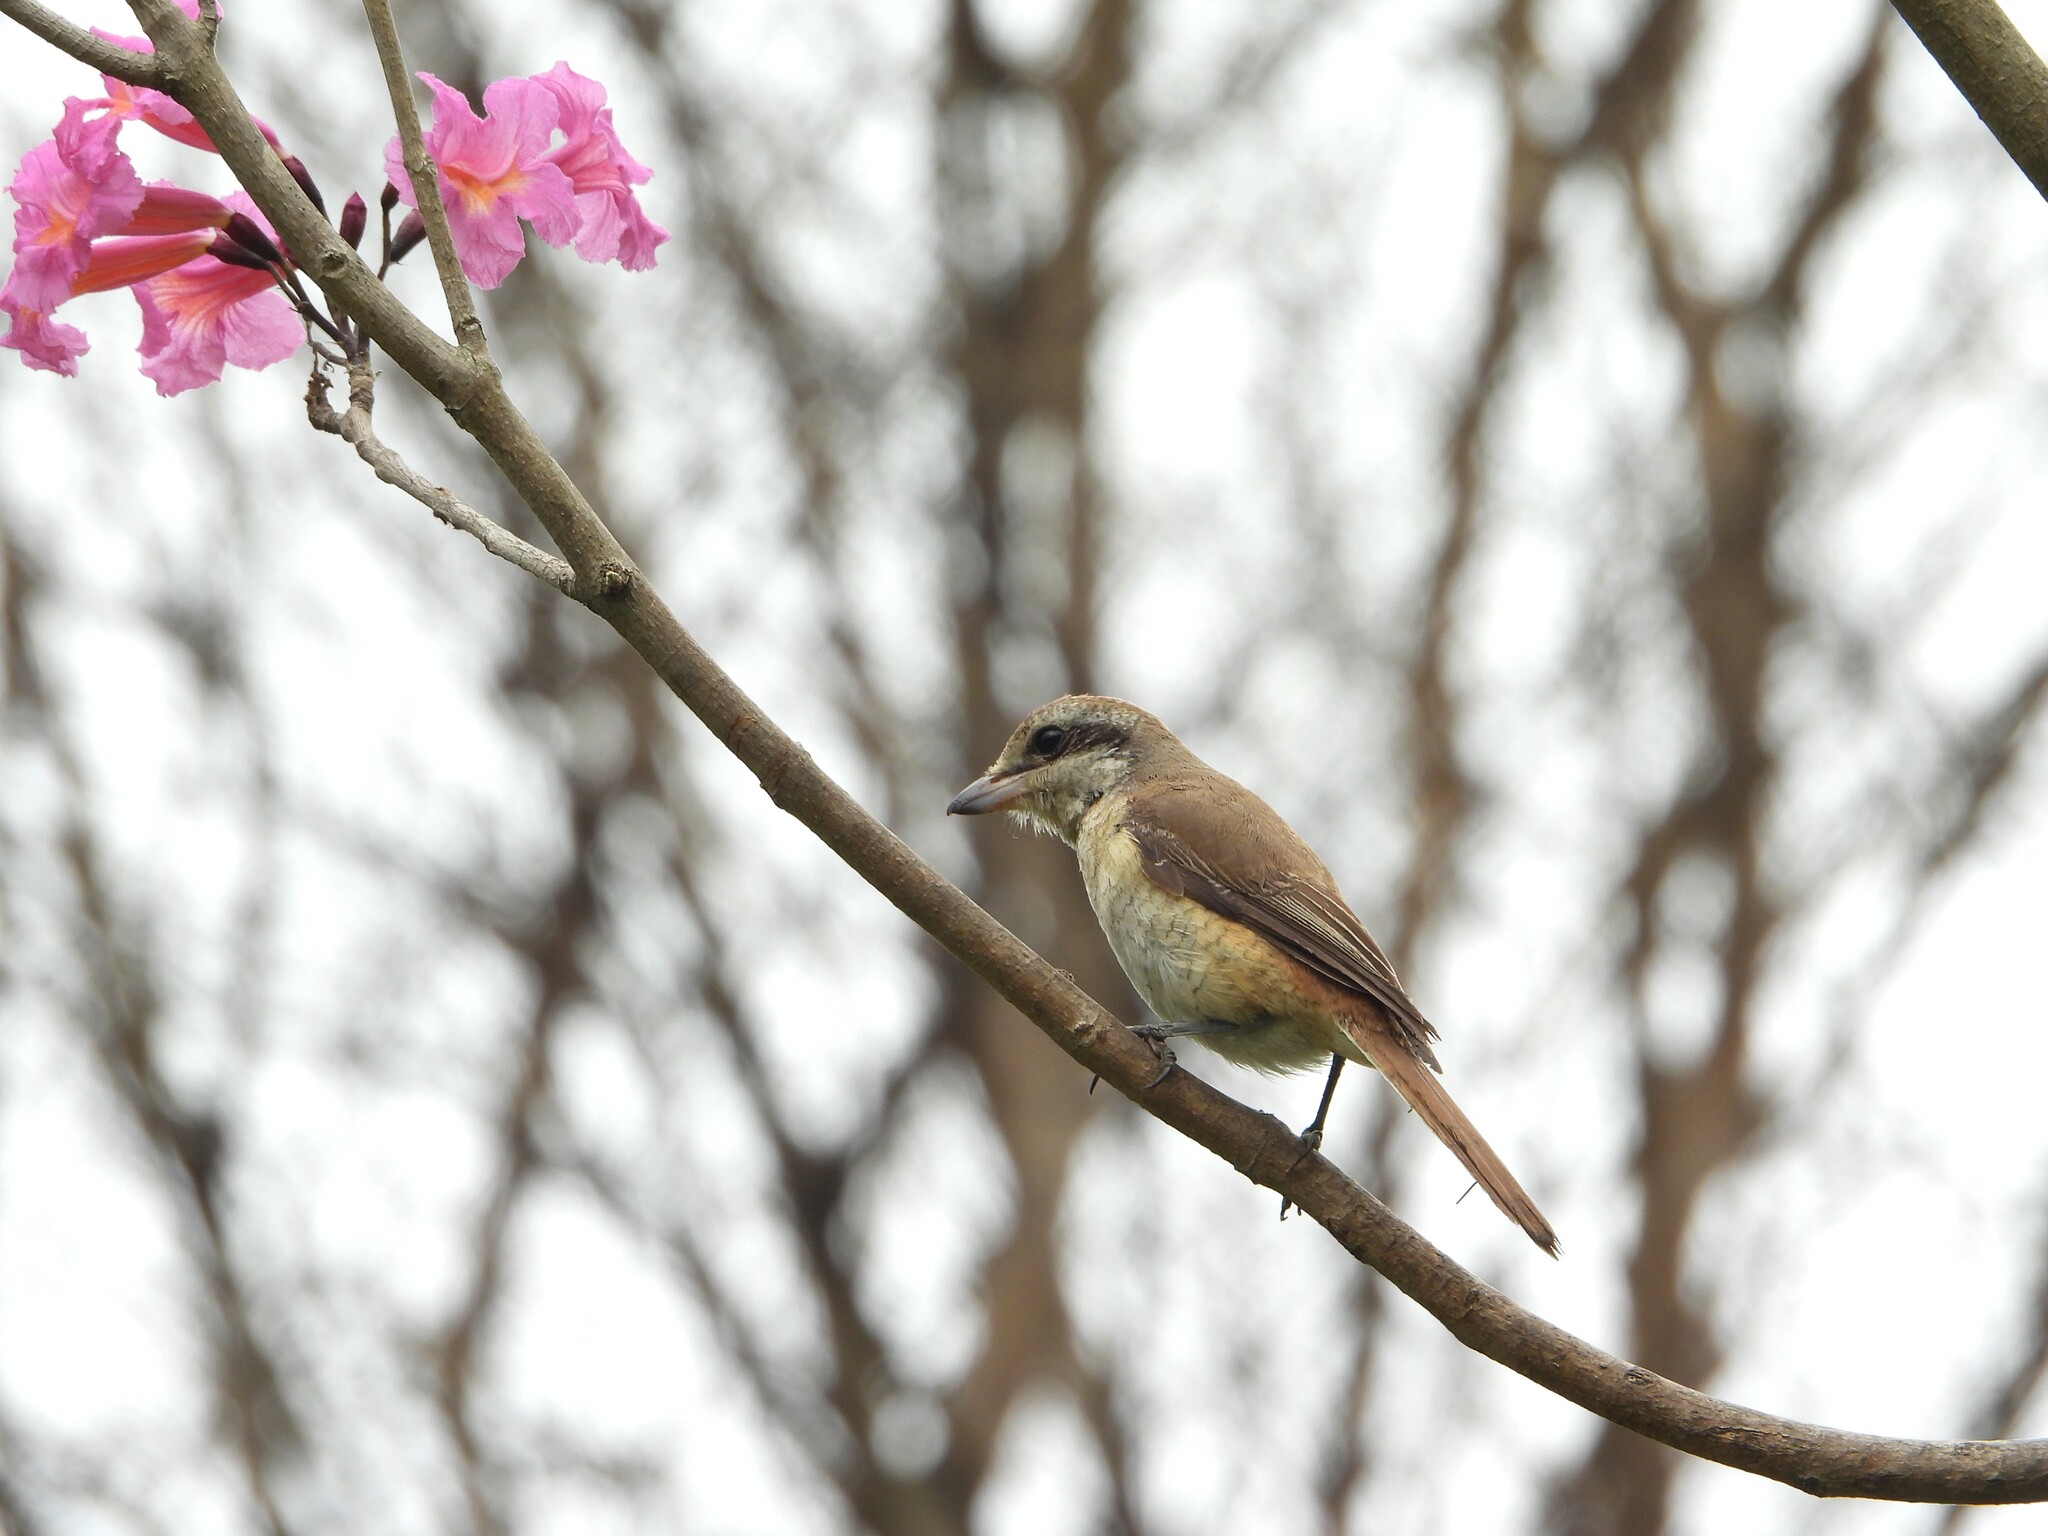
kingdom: Animalia
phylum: Chordata
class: Aves
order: Passeriformes
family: Laniidae
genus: Lanius
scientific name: Lanius cristatus
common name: Brown shrike
